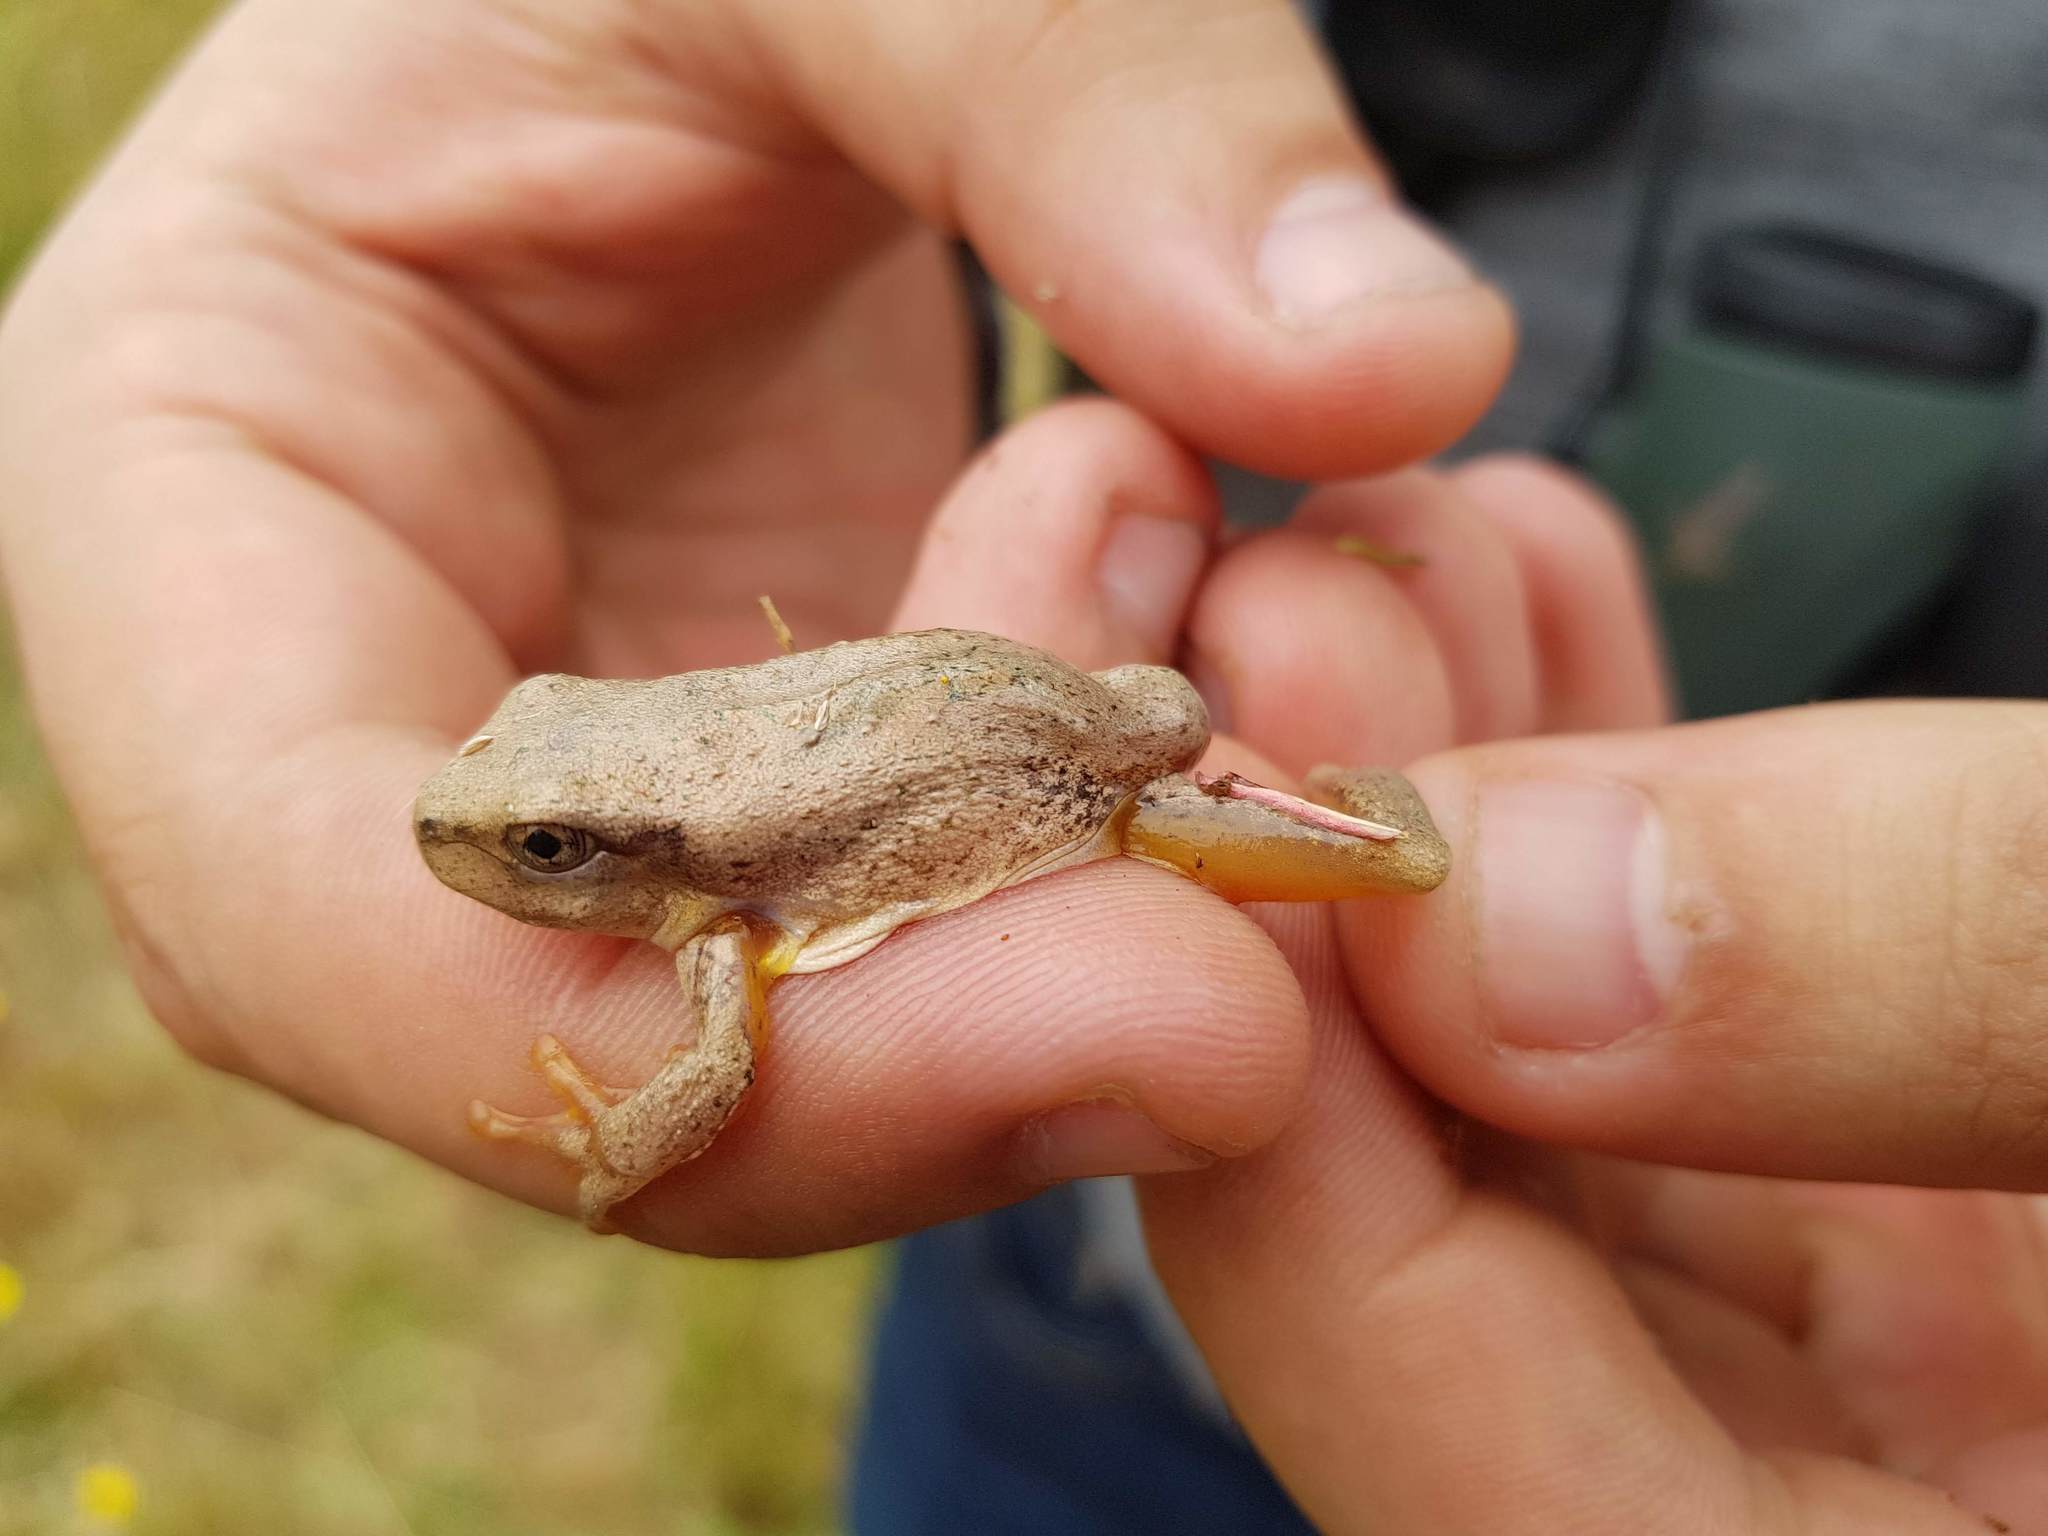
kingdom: Animalia
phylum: Chordata
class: Amphibia
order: Anura
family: Pelodryadidae
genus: Litoria
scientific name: Litoria peronii
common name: Emerald spotted treefrog
